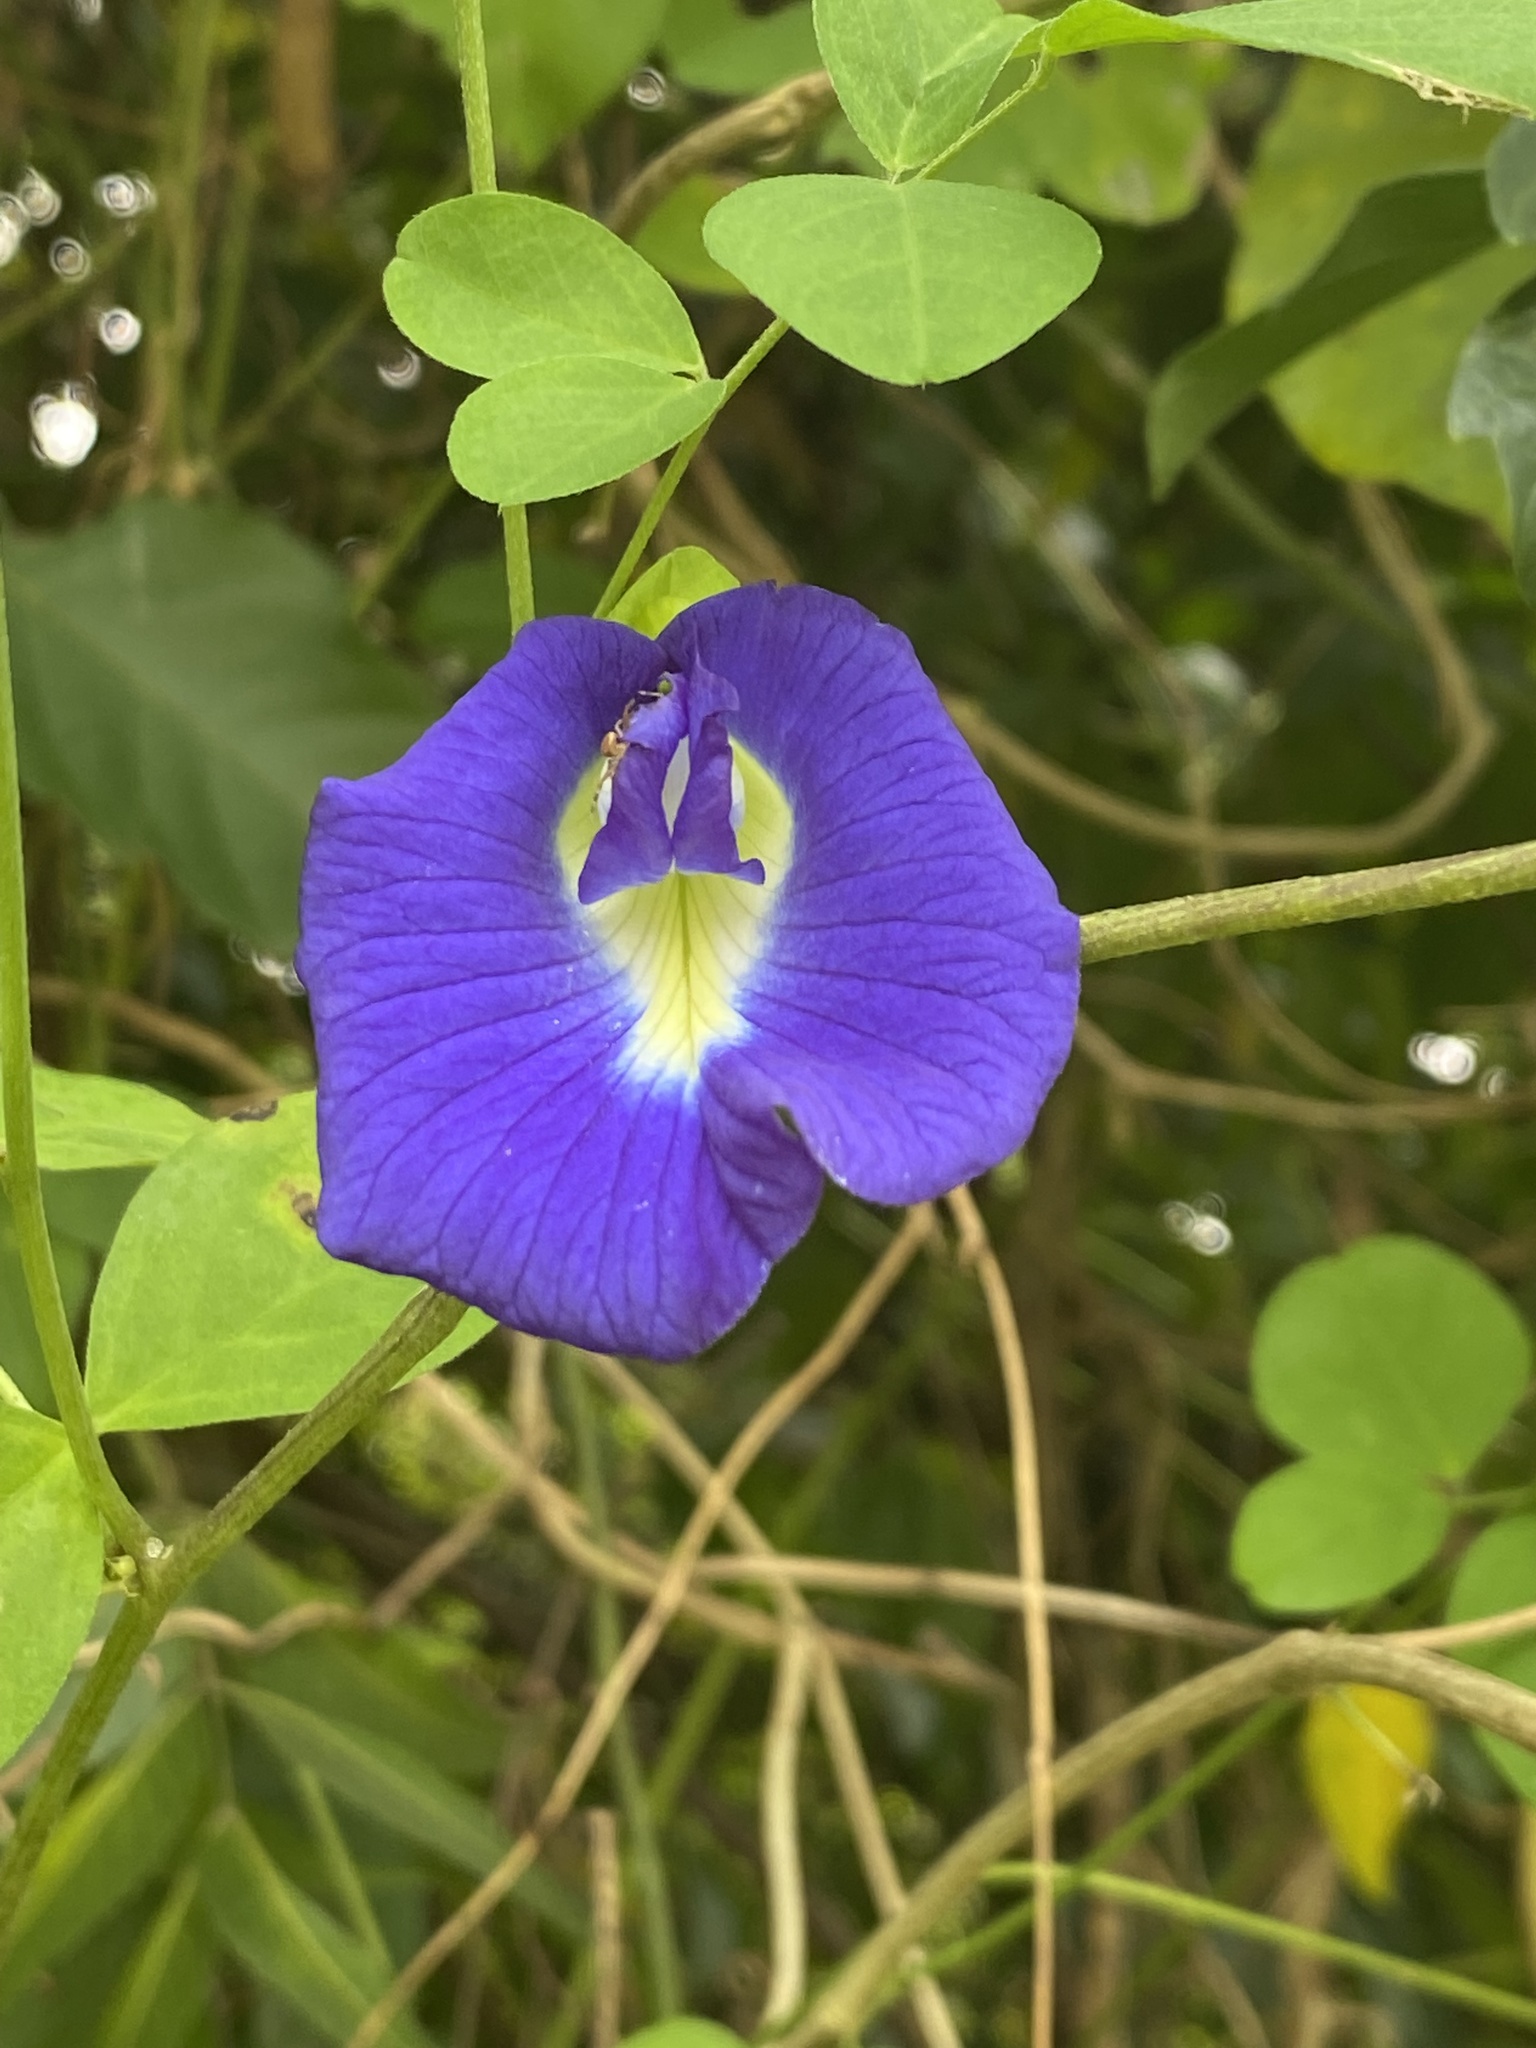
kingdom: Plantae
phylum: Tracheophyta
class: Magnoliopsida
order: Fabales
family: Fabaceae
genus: Clitoria
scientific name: Clitoria ternatea
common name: Asian pigeonwings
